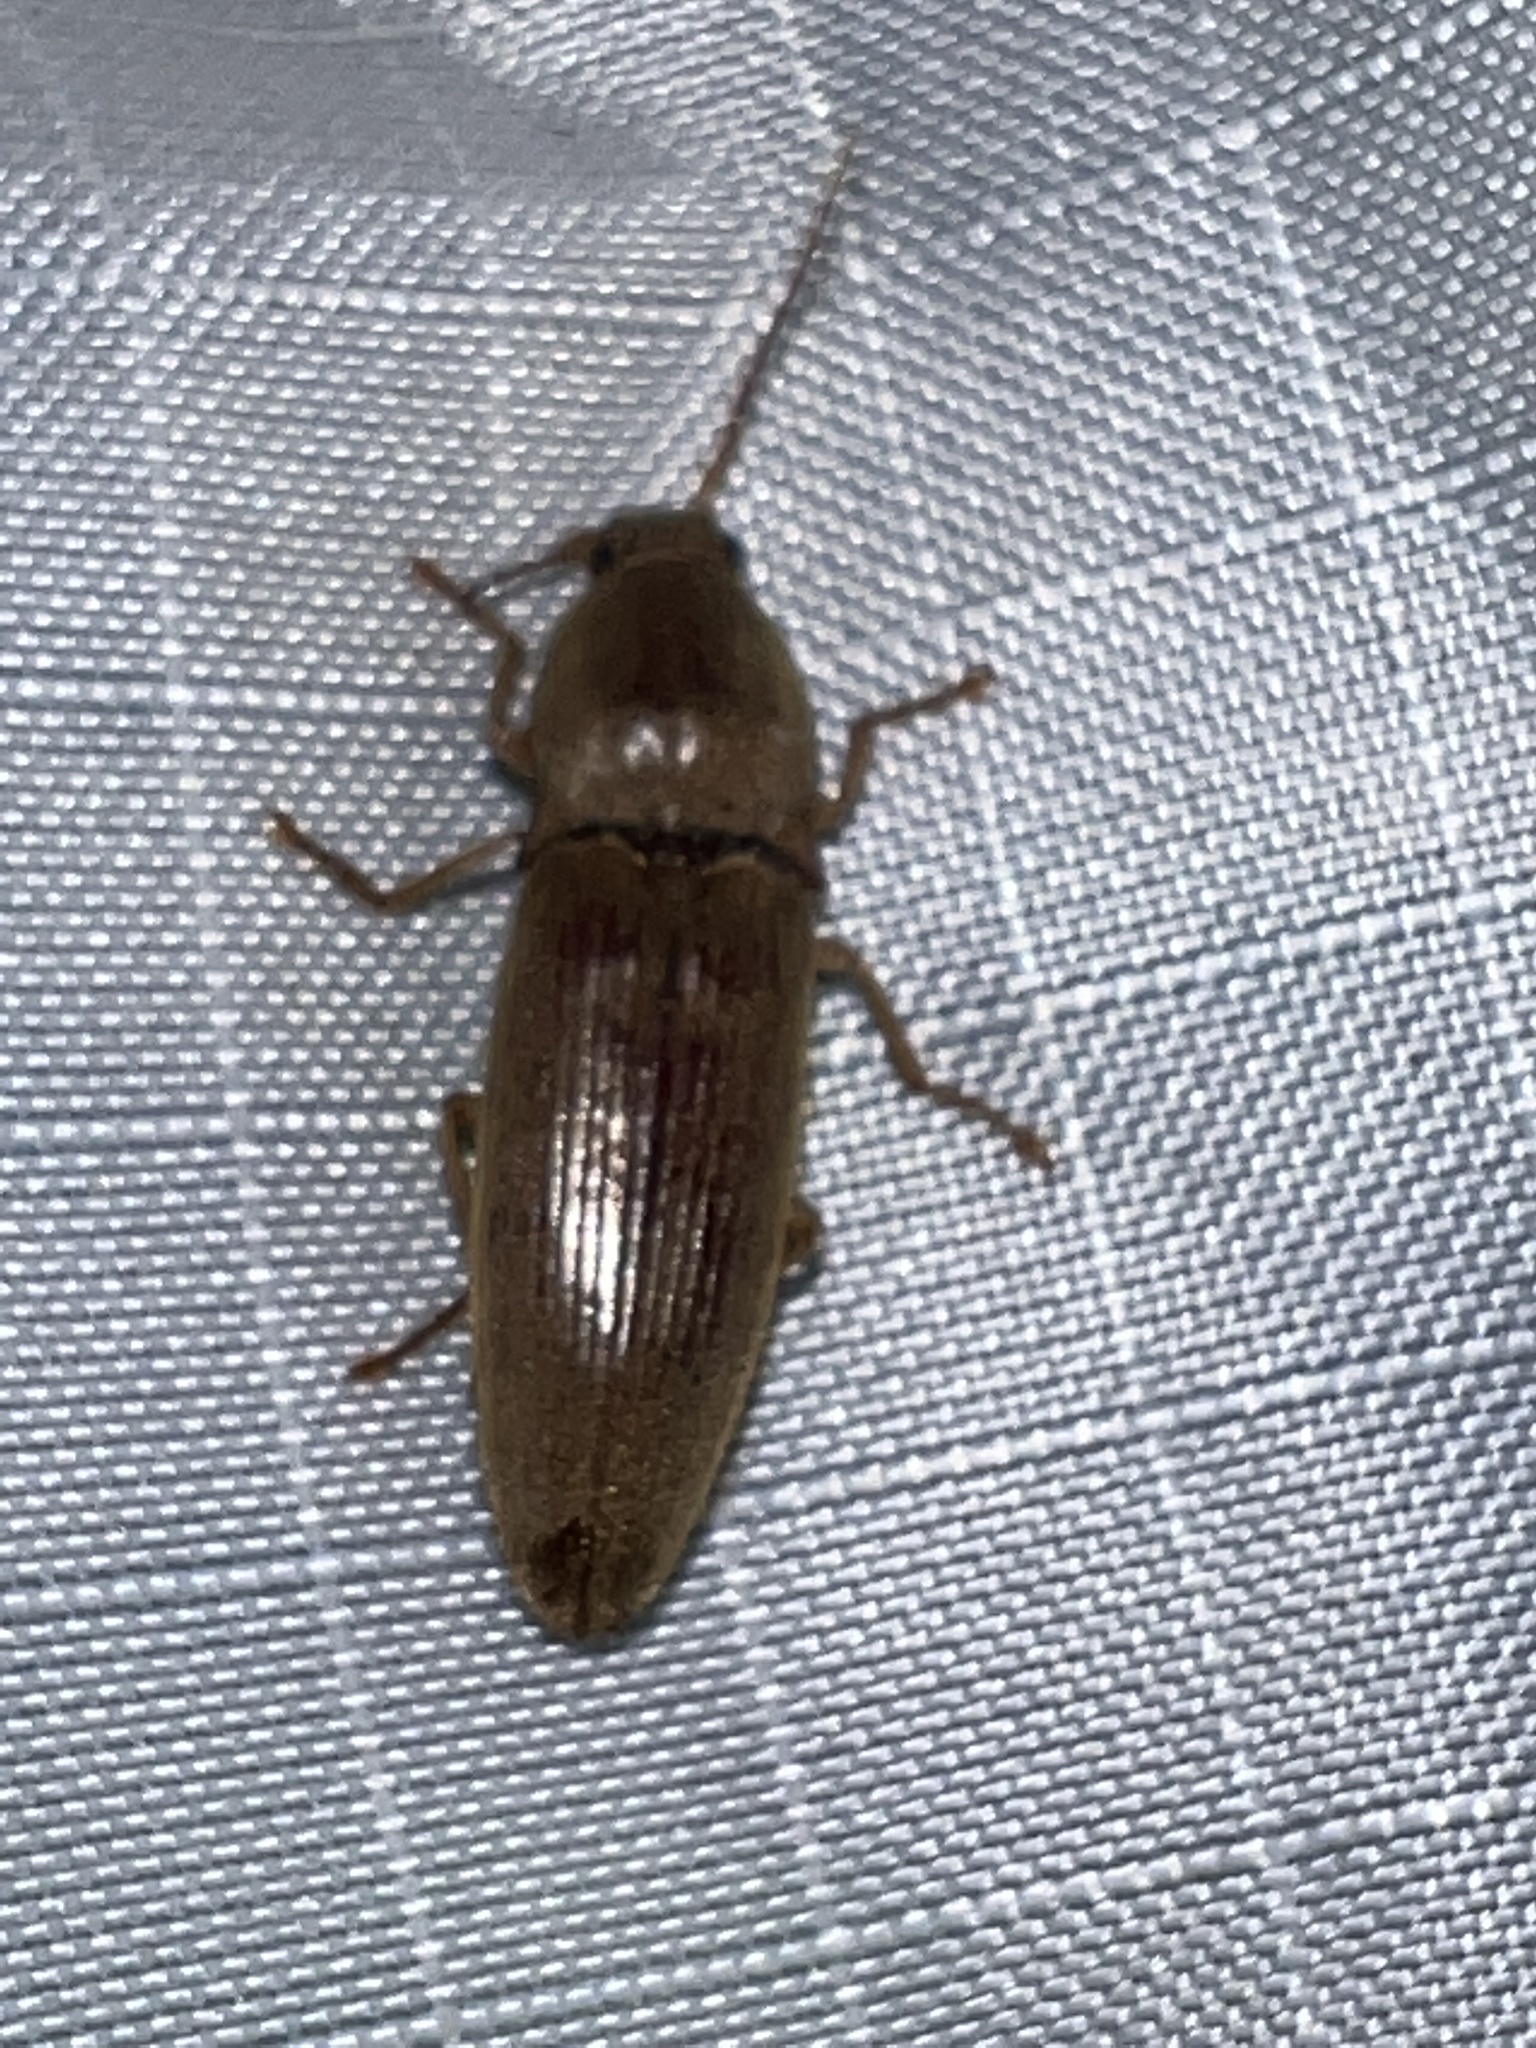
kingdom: Animalia
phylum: Arthropoda
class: Insecta
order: Coleoptera
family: Elateridae
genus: Monocrepidius
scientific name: Monocrepidius lividus
